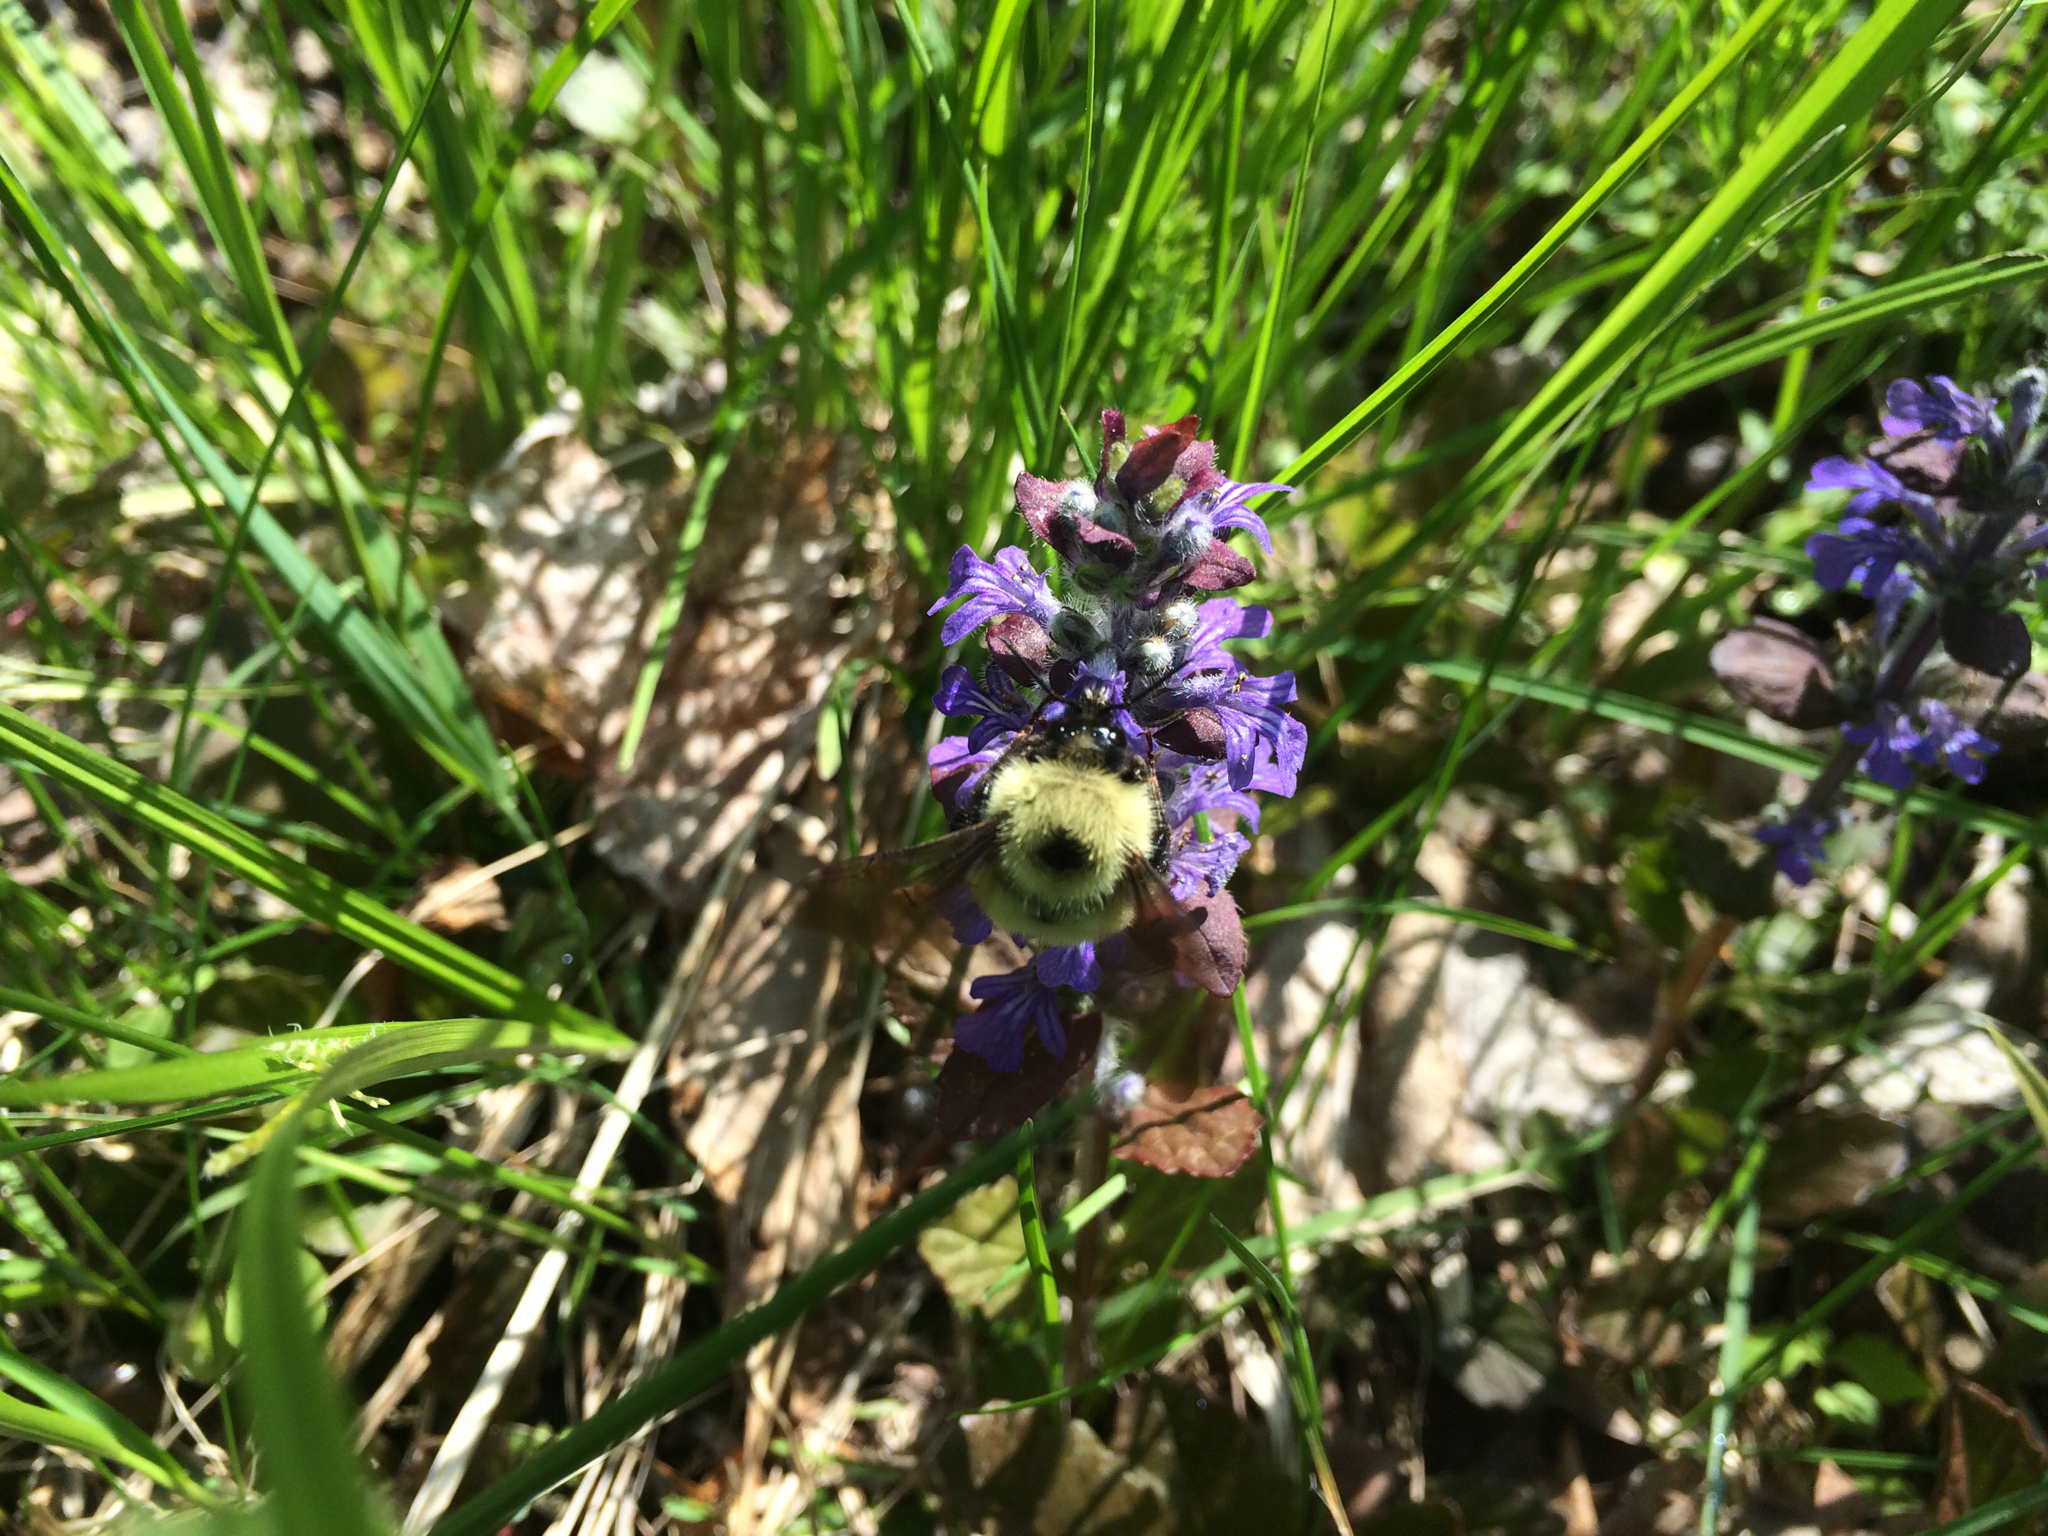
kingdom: Animalia
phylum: Arthropoda
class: Insecta
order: Hymenoptera
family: Apidae
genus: Bombus
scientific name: Bombus bimaculatus
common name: Two-spotted bumble bee
